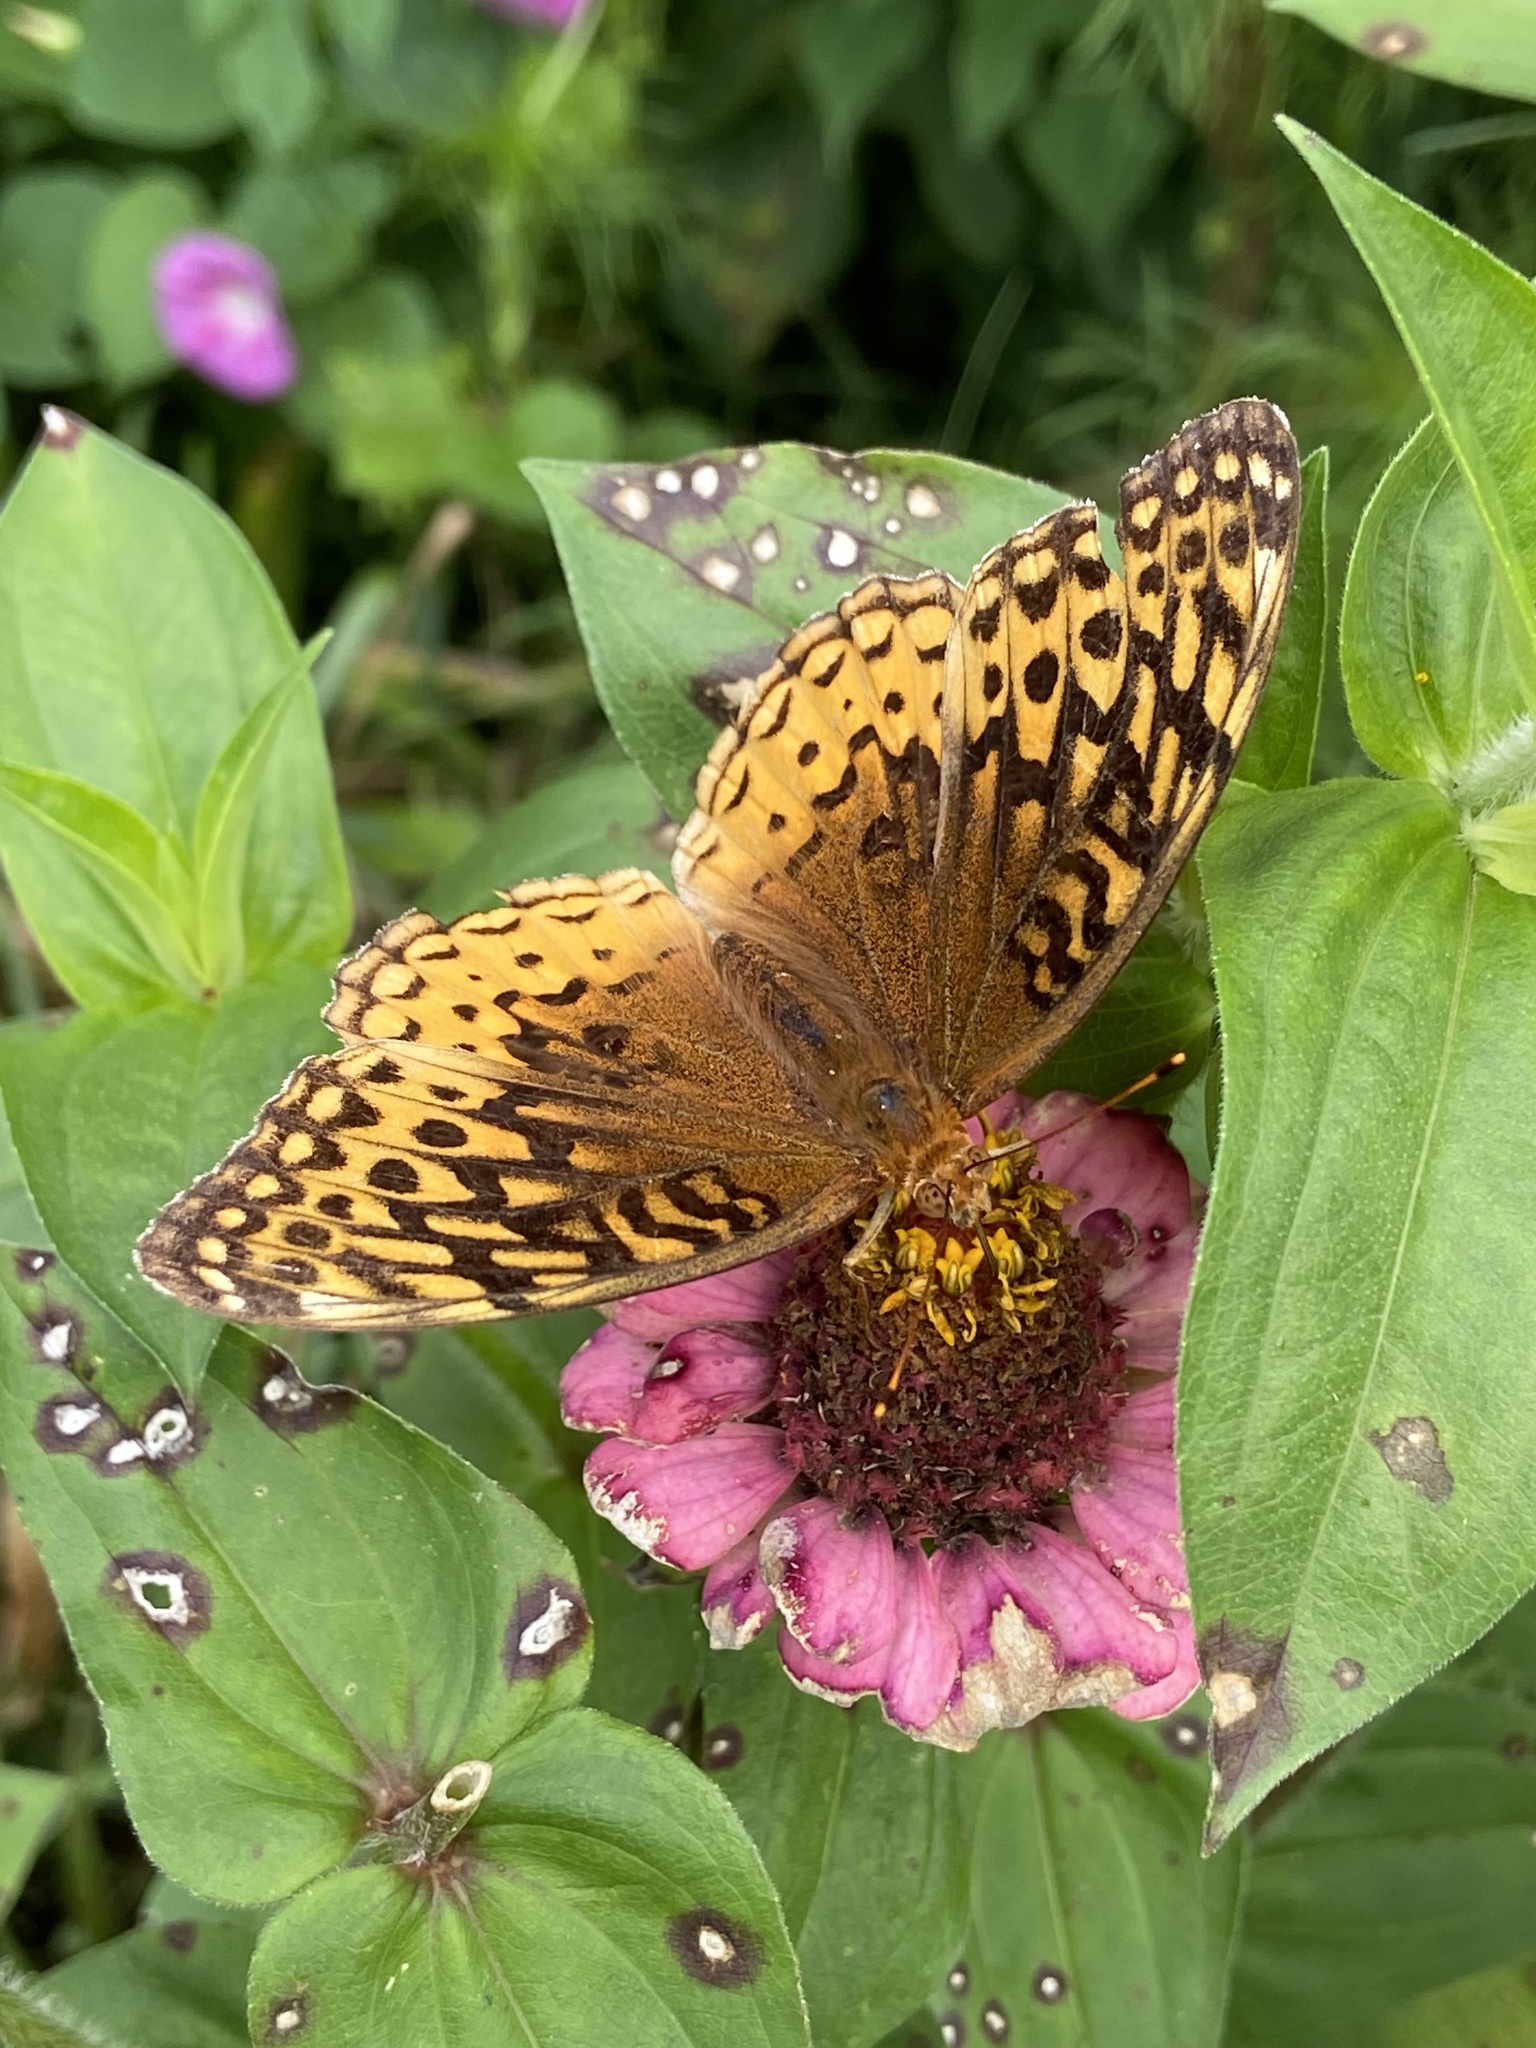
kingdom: Animalia
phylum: Arthropoda
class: Insecta
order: Lepidoptera
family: Nymphalidae
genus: Speyeria
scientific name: Speyeria cybele
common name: Great spangled fritillary
